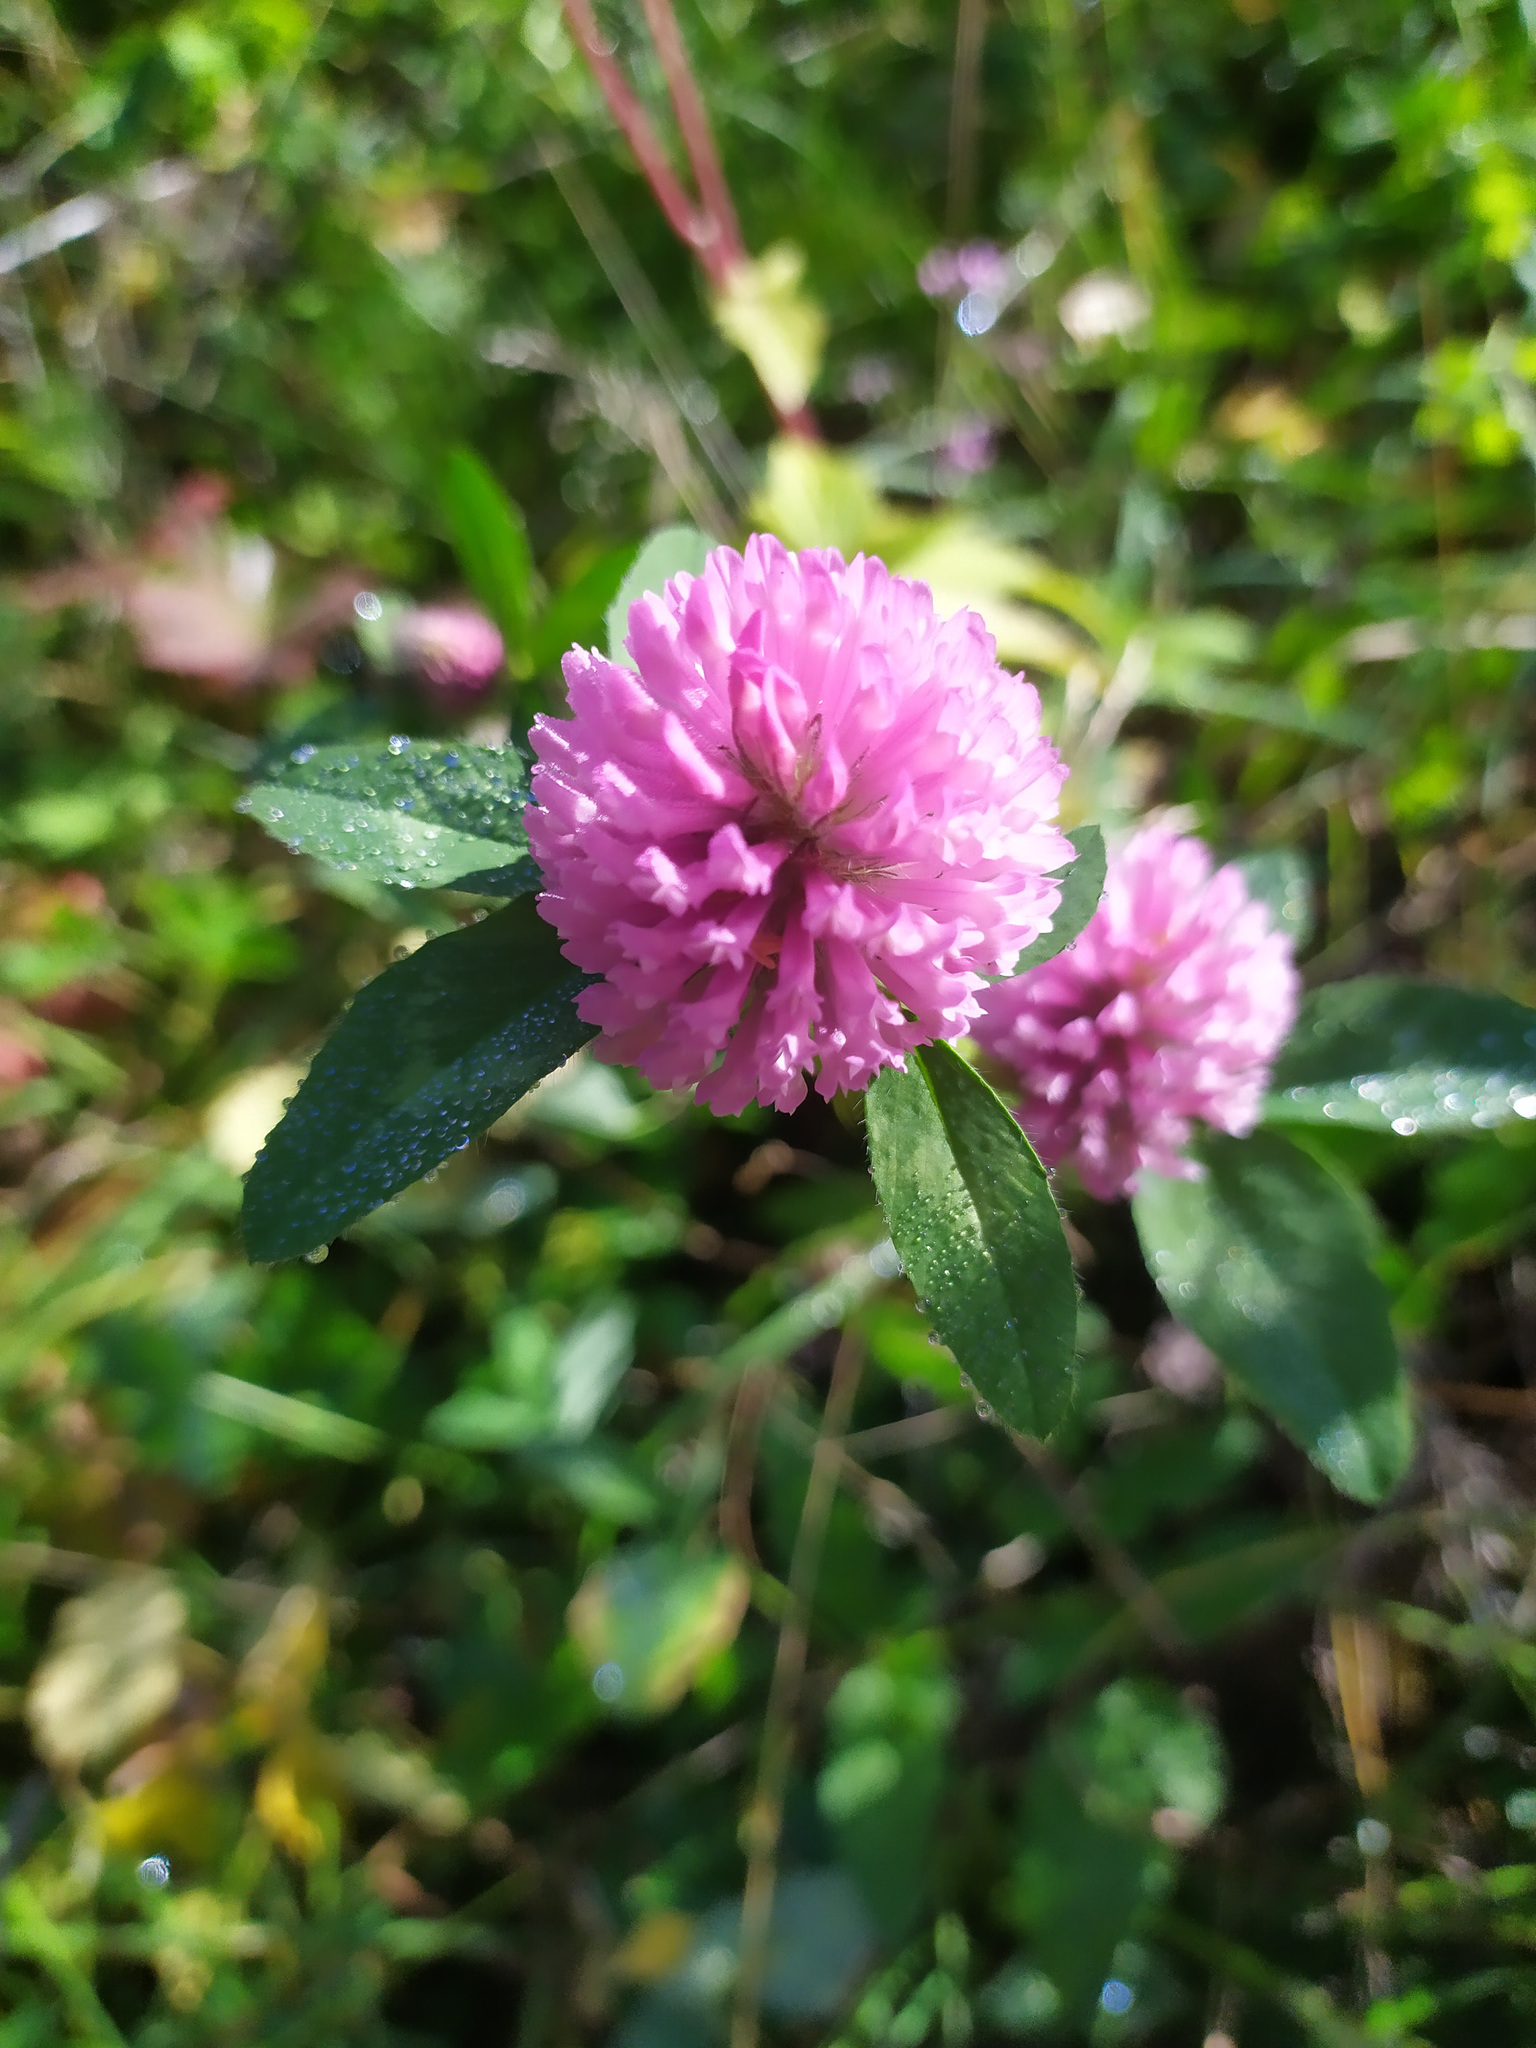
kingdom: Plantae
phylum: Tracheophyta
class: Magnoliopsida
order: Fabales
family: Fabaceae
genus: Trifolium
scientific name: Trifolium pratense
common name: Red clover
